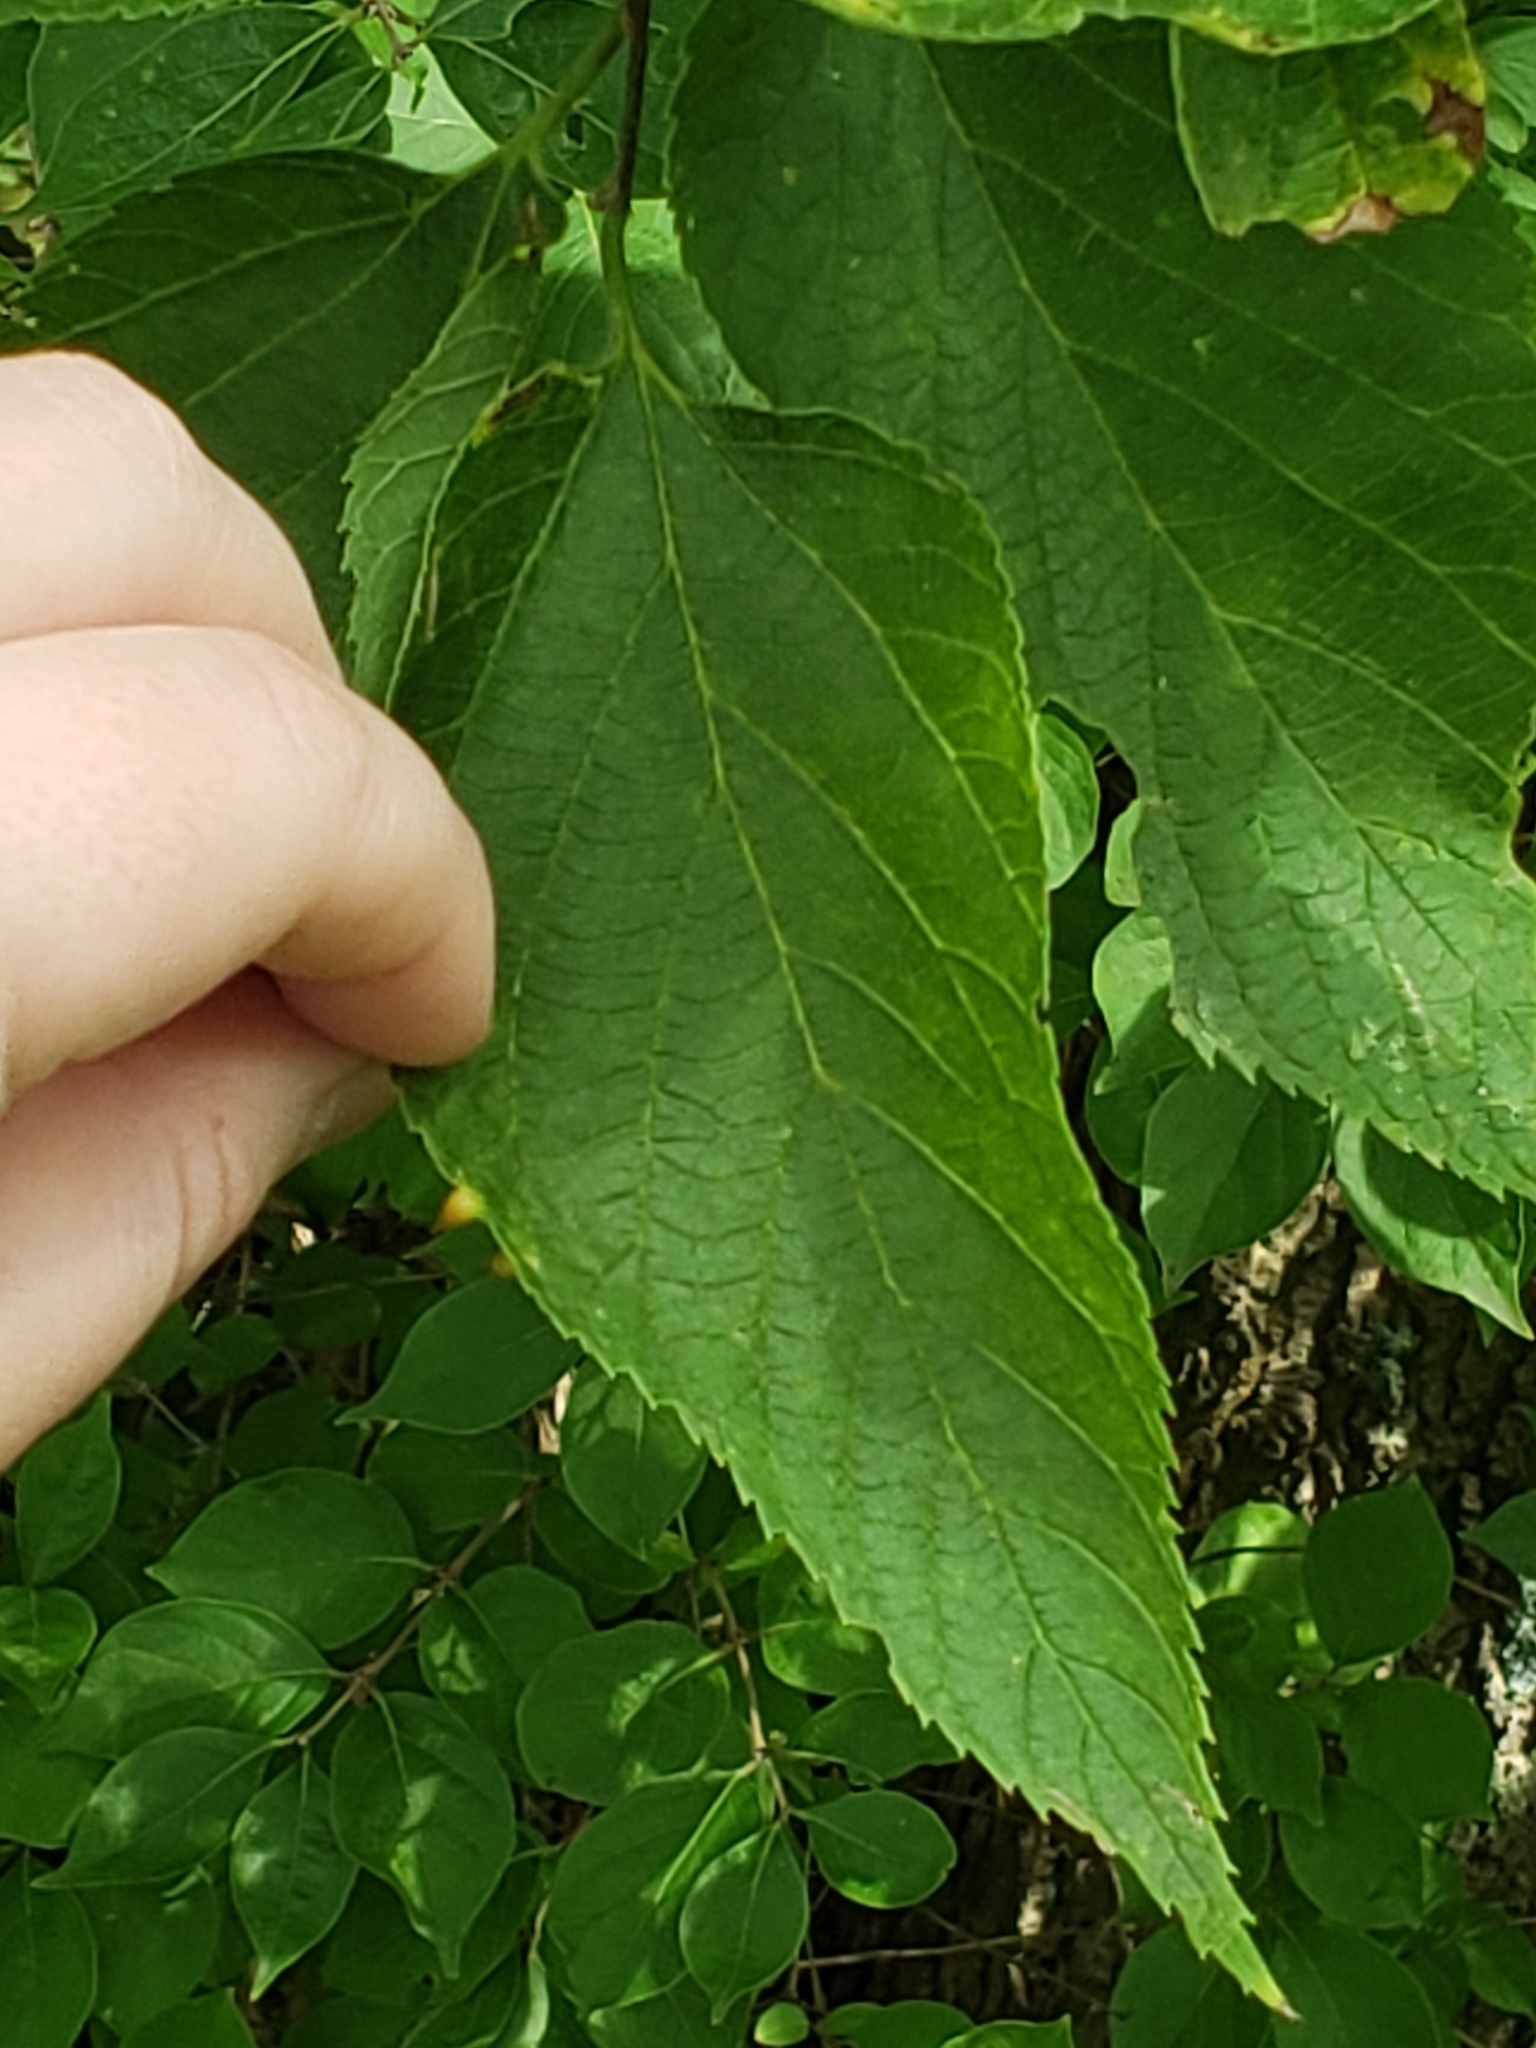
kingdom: Animalia
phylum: Arthropoda
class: Insecta
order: Diptera
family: Cecidomyiidae
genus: Celticecis
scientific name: Celticecis conica
